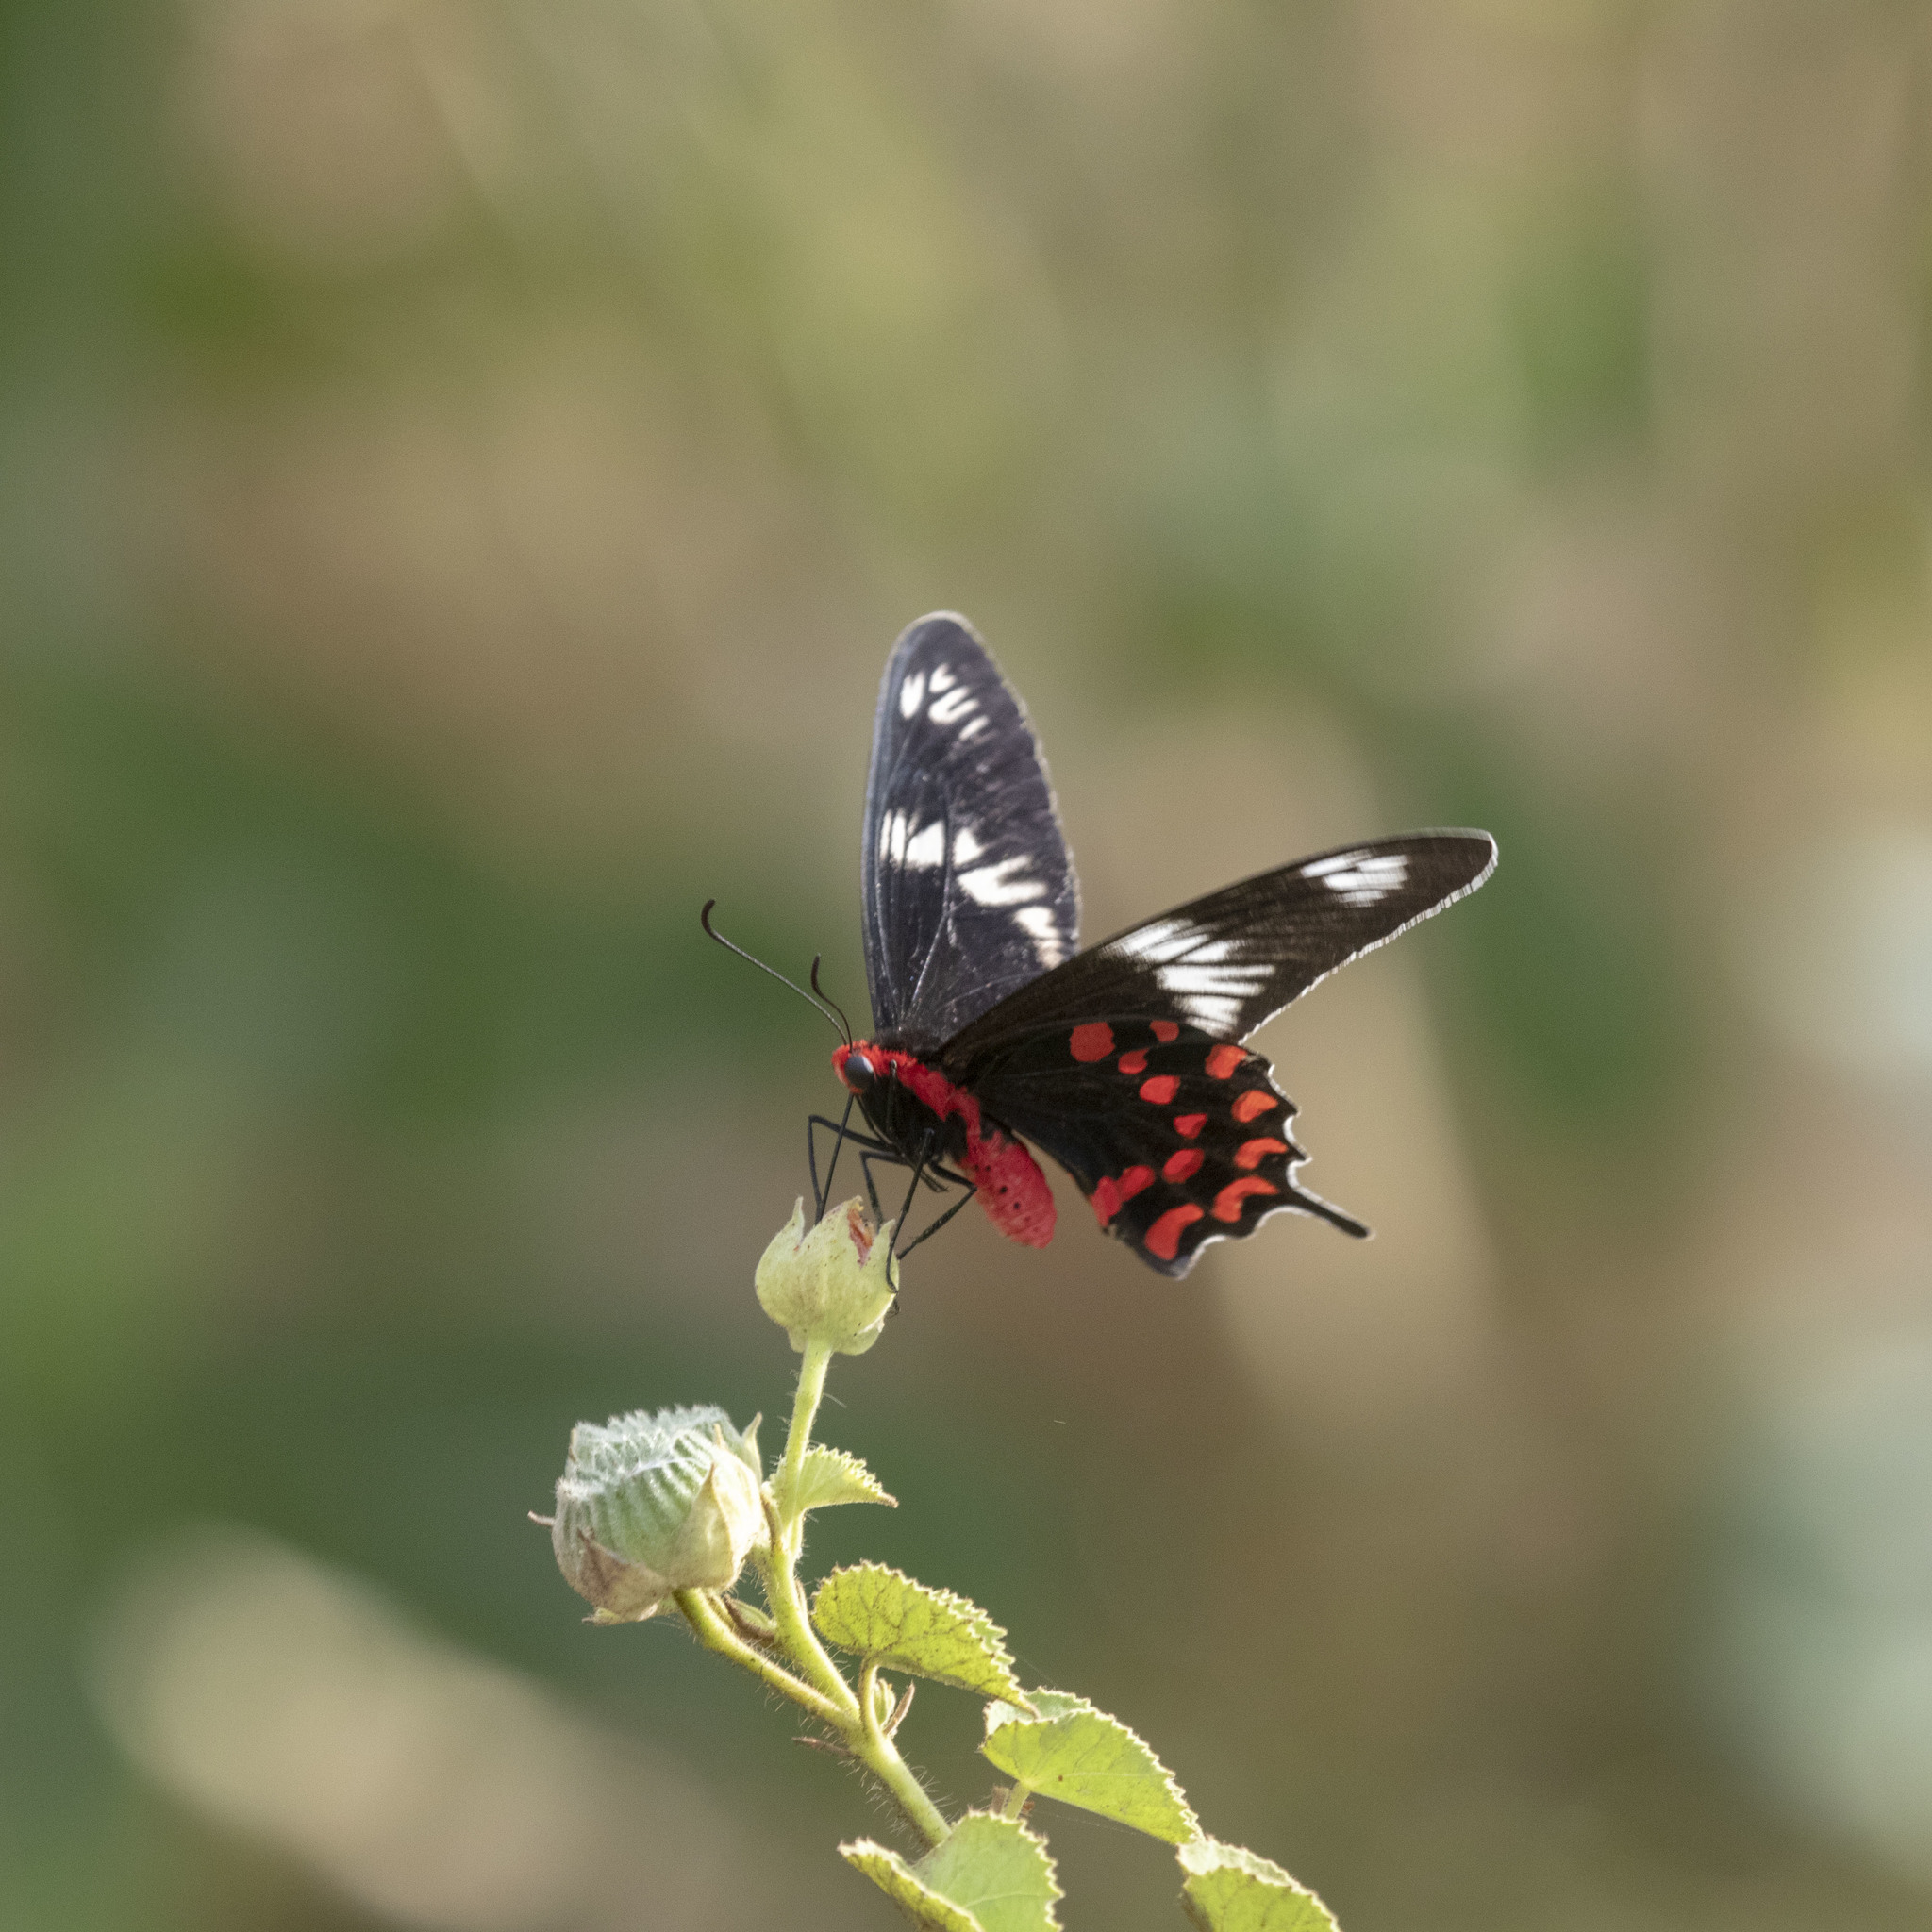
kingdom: Animalia
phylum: Arthropoda
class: Insecta
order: Lepidoptera
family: Papilionidae
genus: Pachliopta
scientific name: Pachliopta hector
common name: Crimson rose
